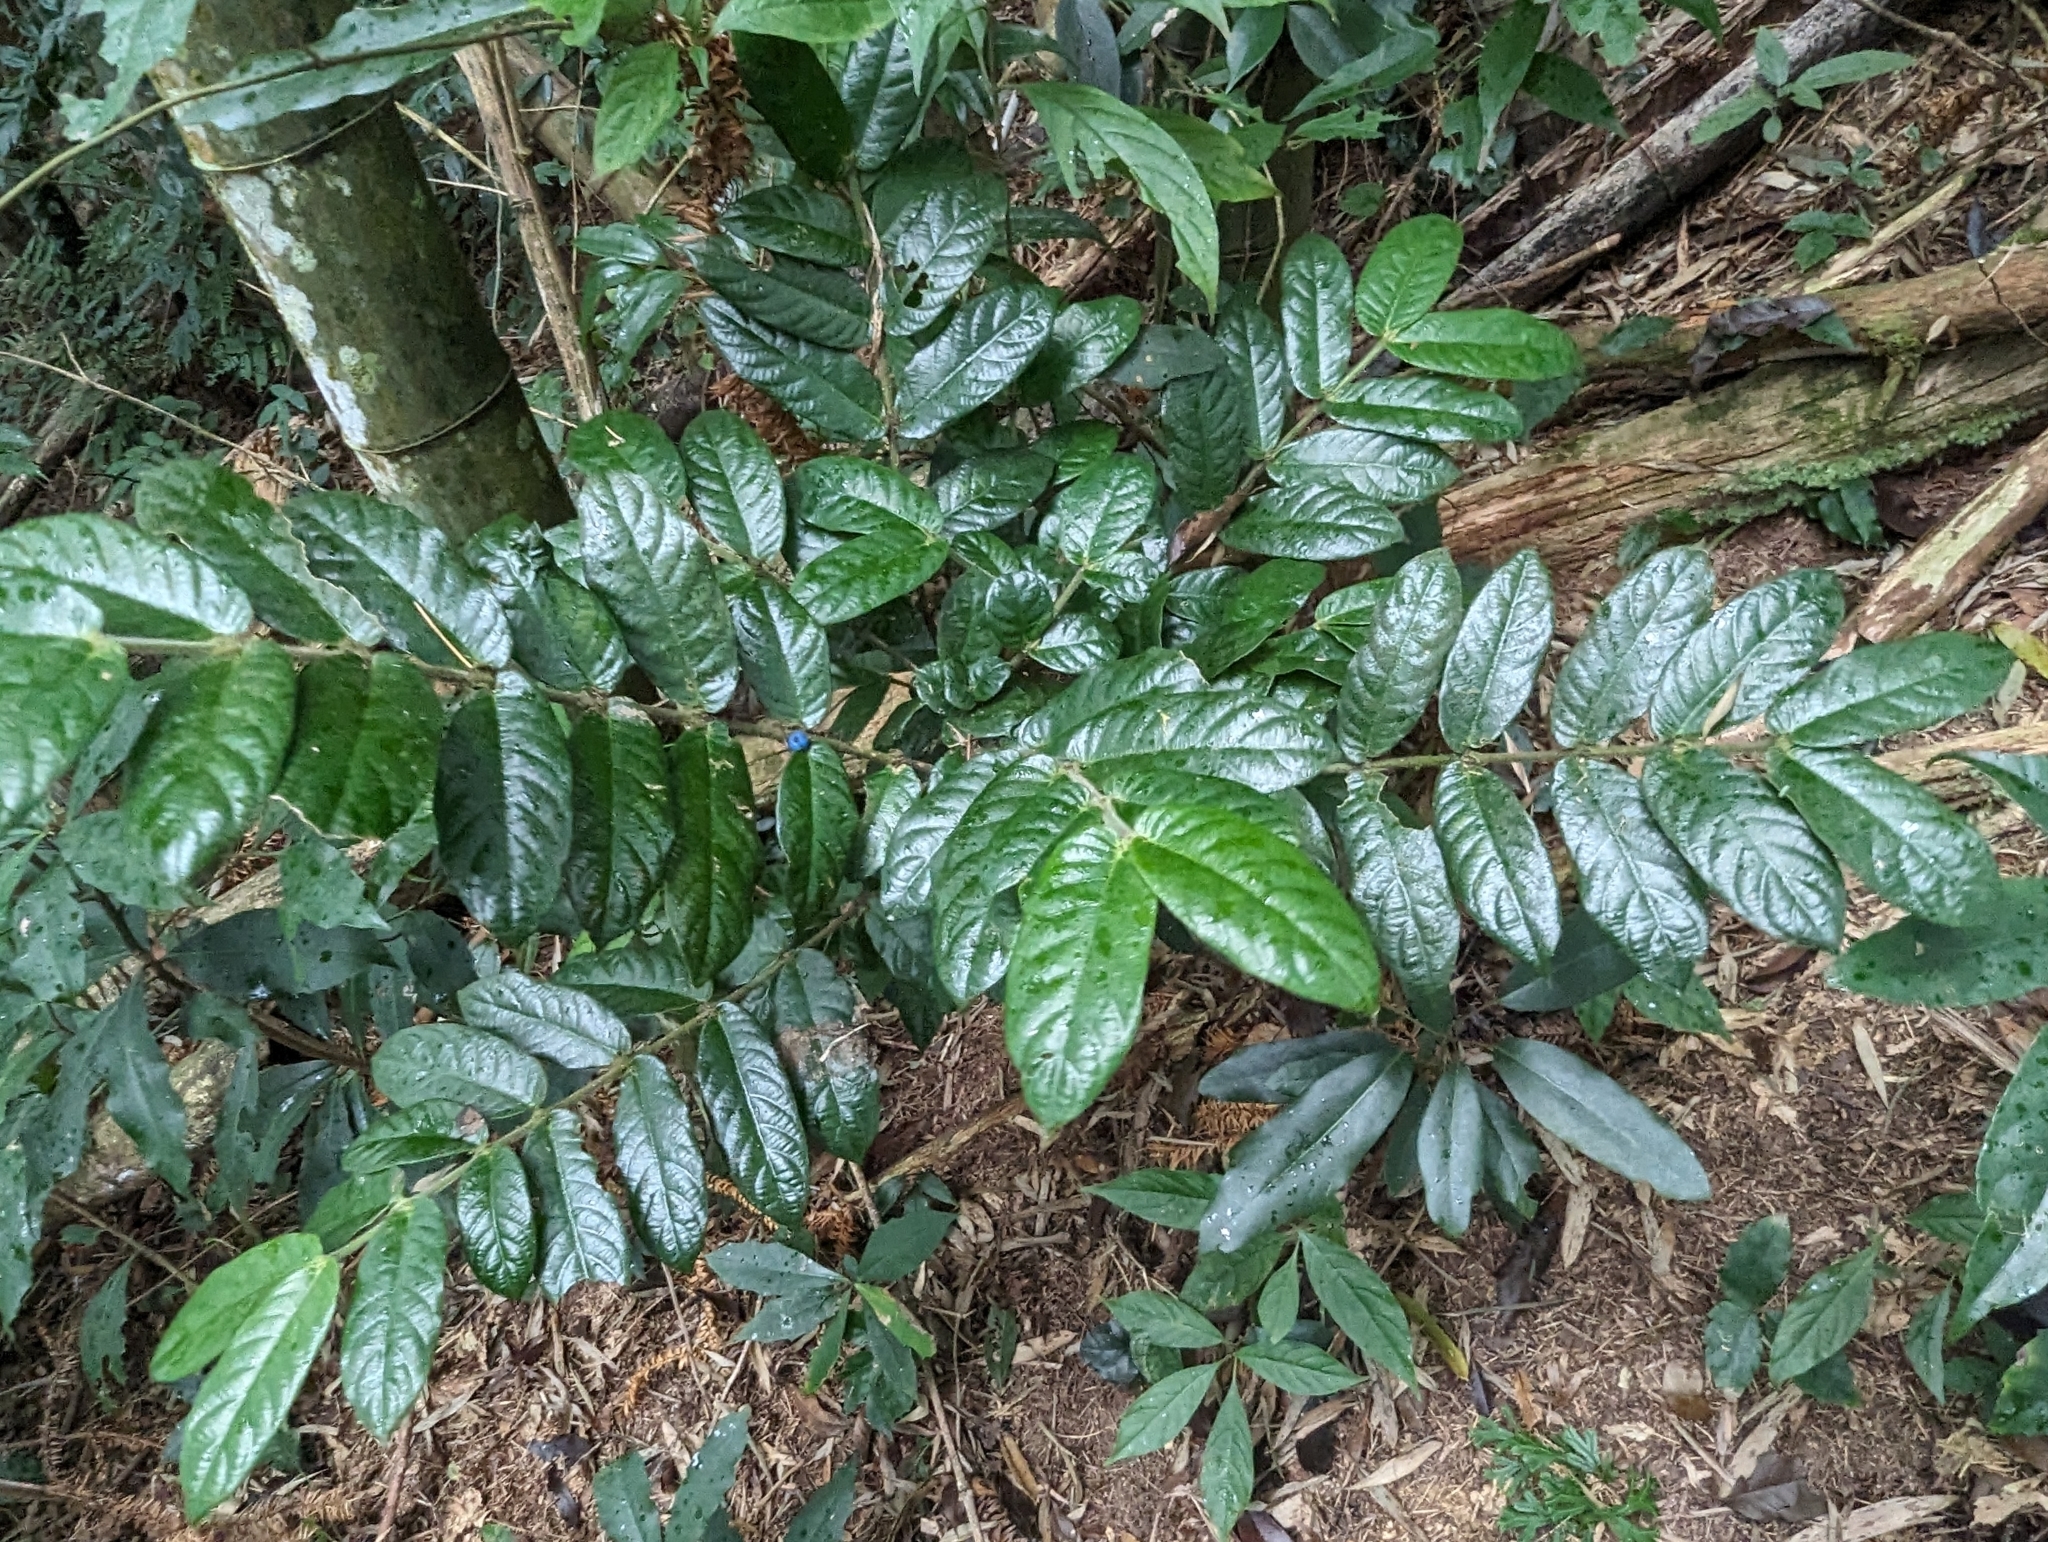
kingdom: Plantae
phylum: Tracheophyta
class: Magnoliopsida
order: Gentianales
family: Rubiaceae
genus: Lasianthus
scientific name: Lasianthus attenuatus
